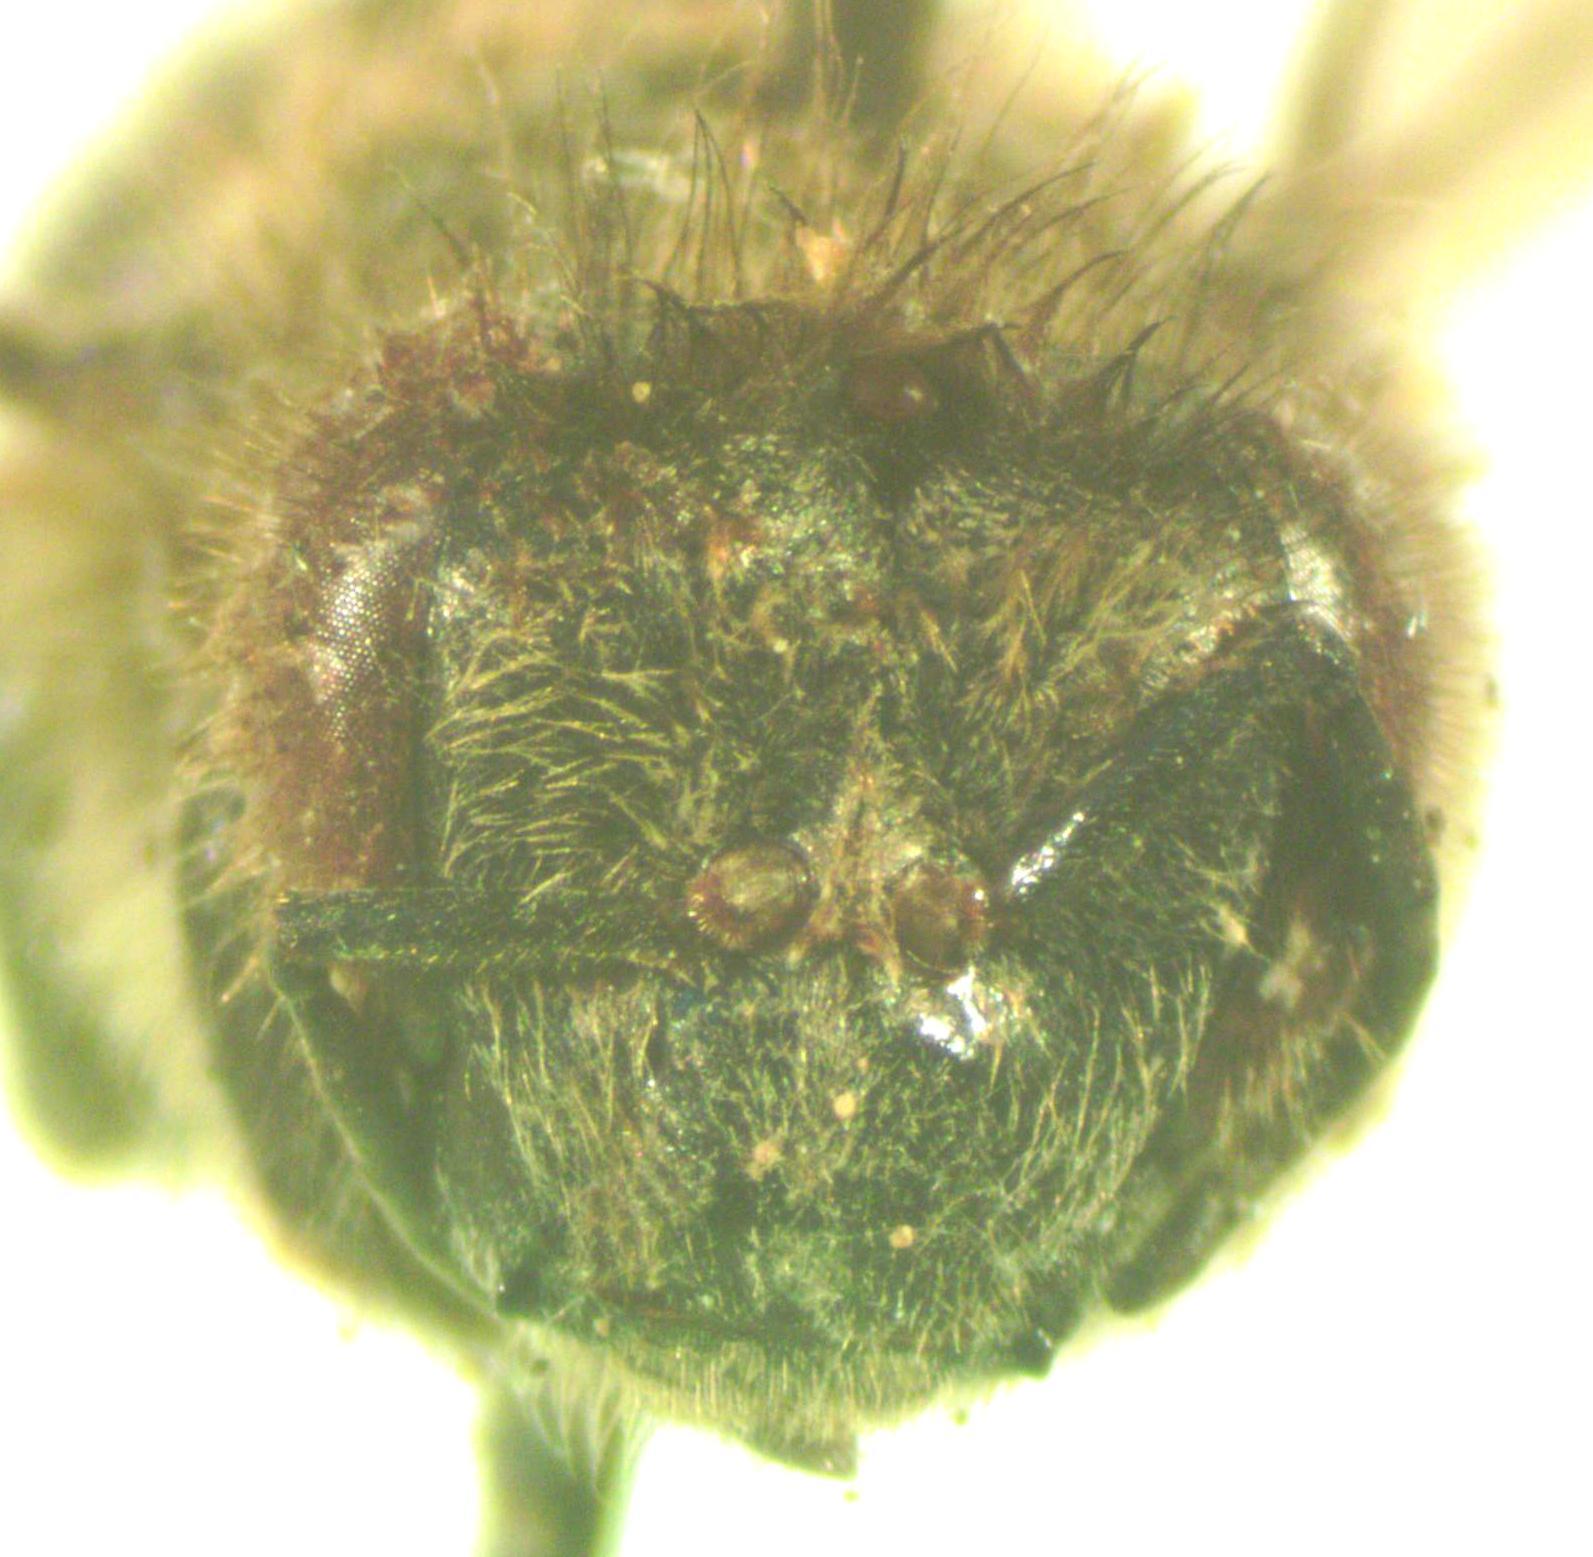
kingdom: Animalia
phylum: Arthropoda
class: Insecta
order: Hymenoptera
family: Apidae
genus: Apis
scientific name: Apis mellifera
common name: Honey bee
